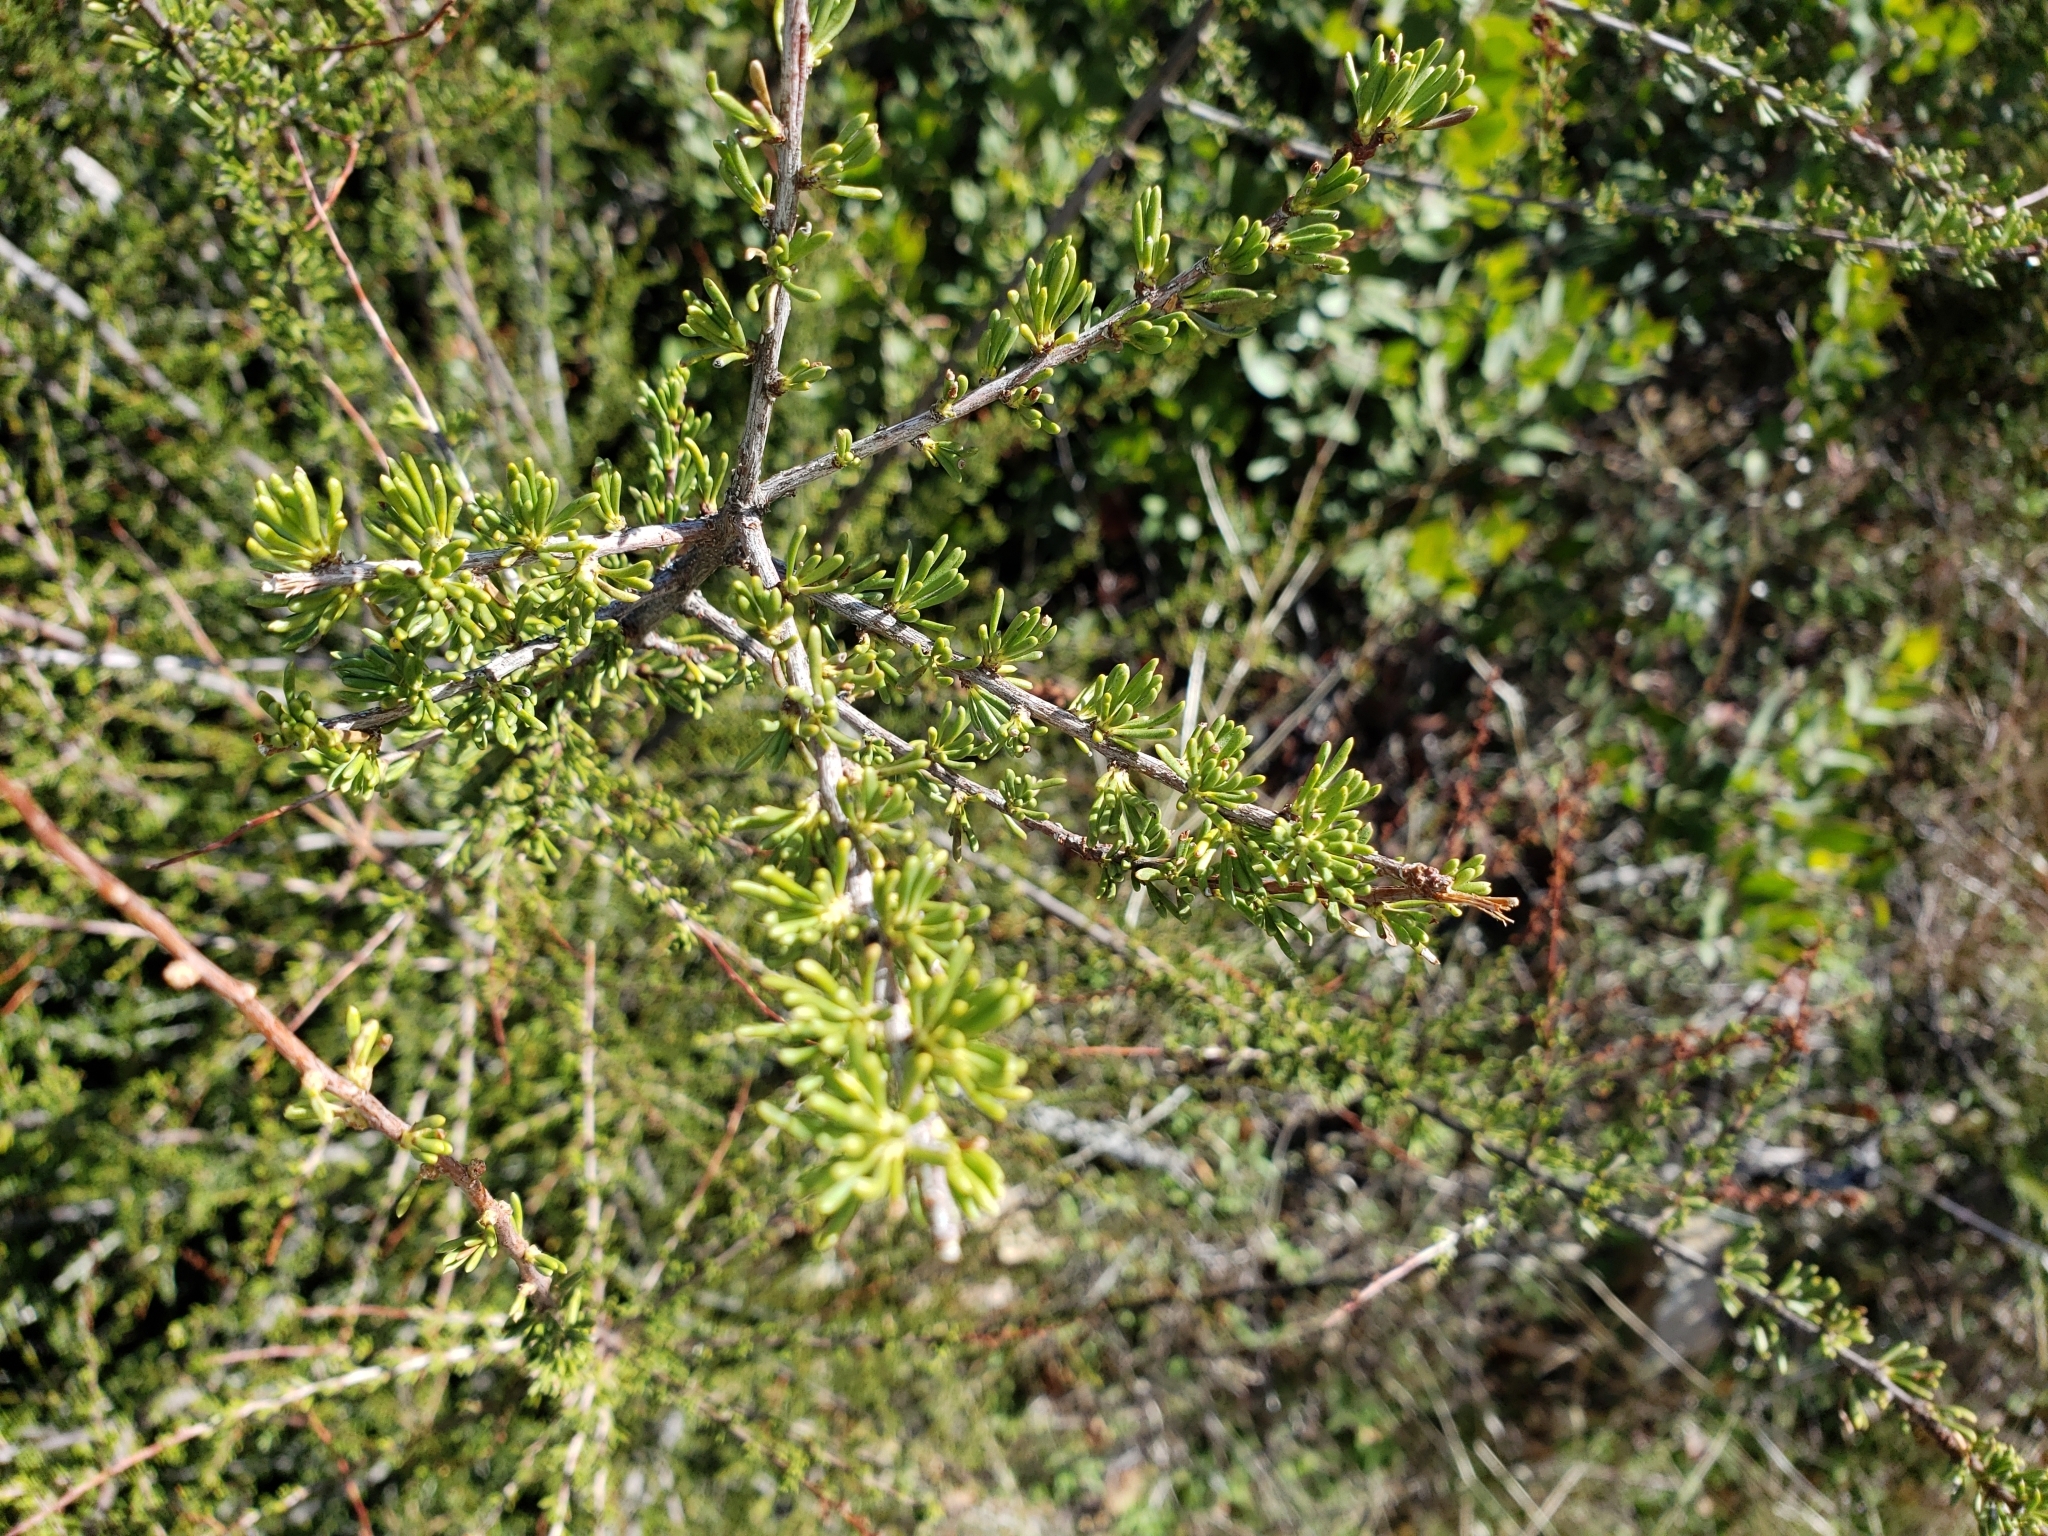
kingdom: Plantae
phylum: Tracheophyta
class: Magnoliopsida
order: Rosales
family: Rosaceae
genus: Adenostoma
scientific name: Adenostoma fasciculatum
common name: Chamise
